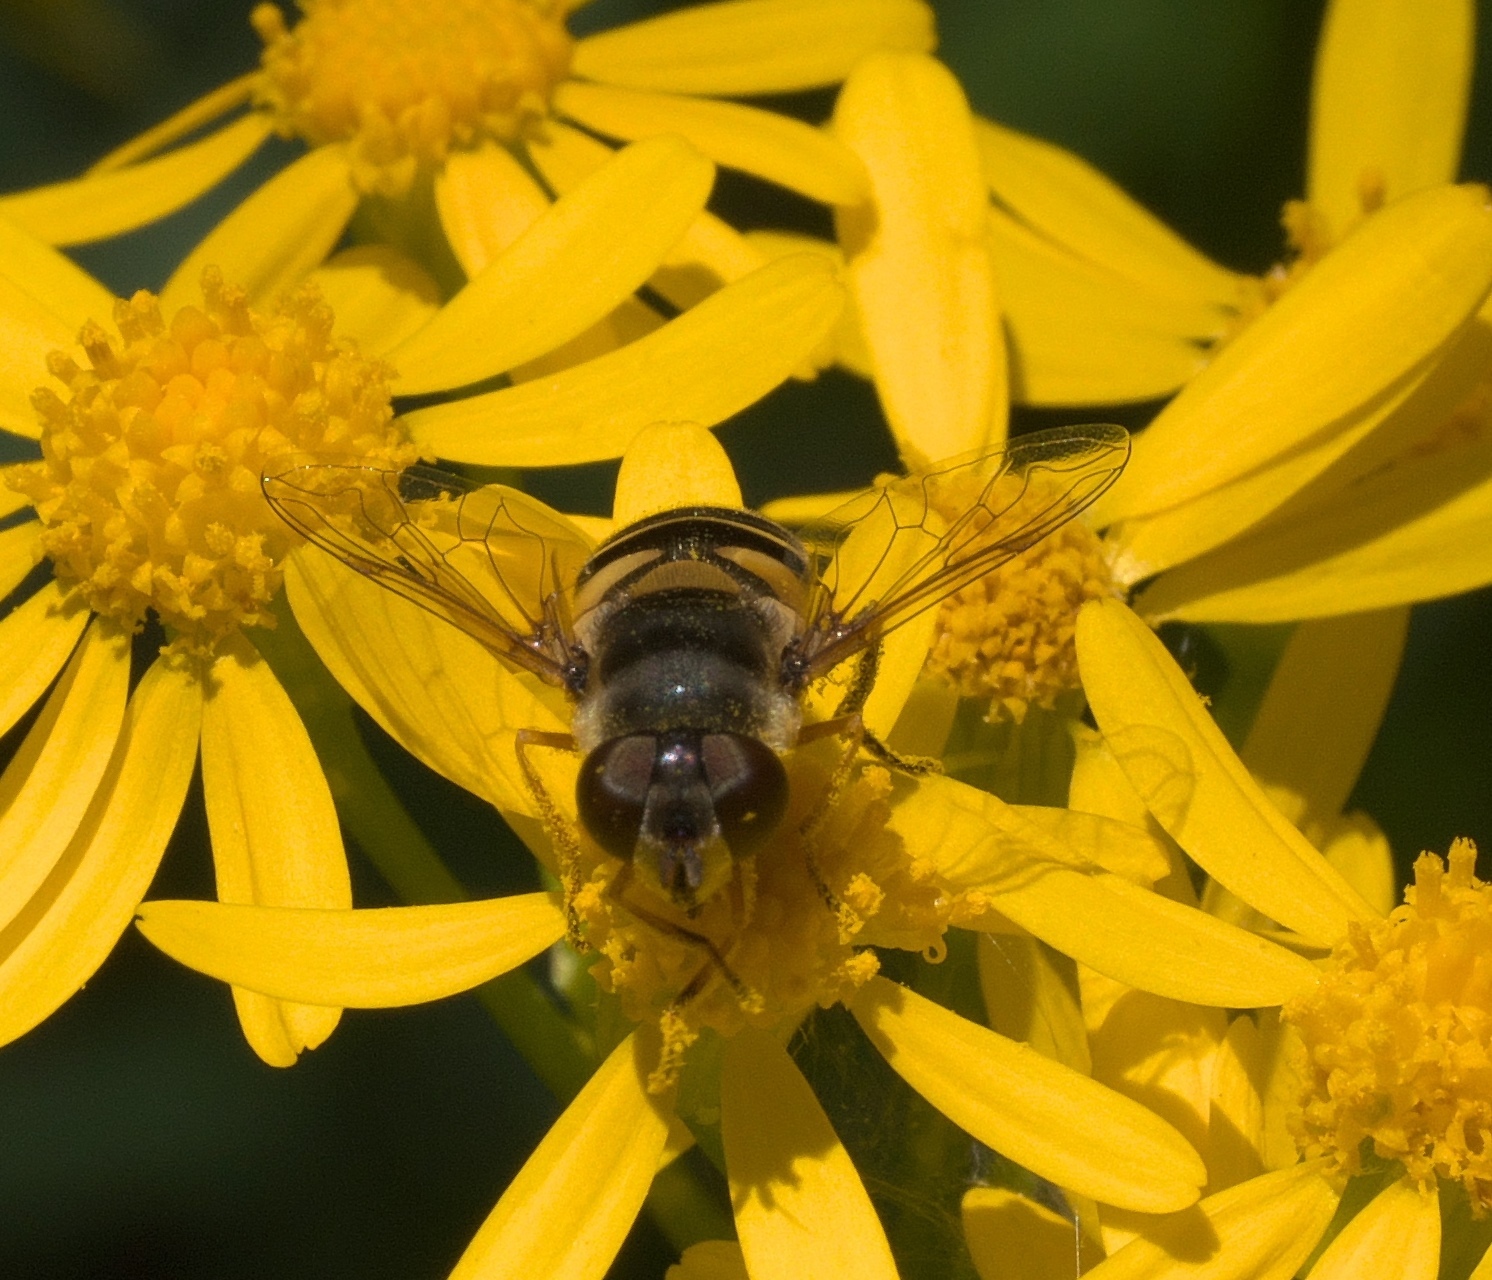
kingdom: Animalia
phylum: Arthropoda
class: Insecta
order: Diptera
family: Syrphidae
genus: Eristalis
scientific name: Eristalis transversa
